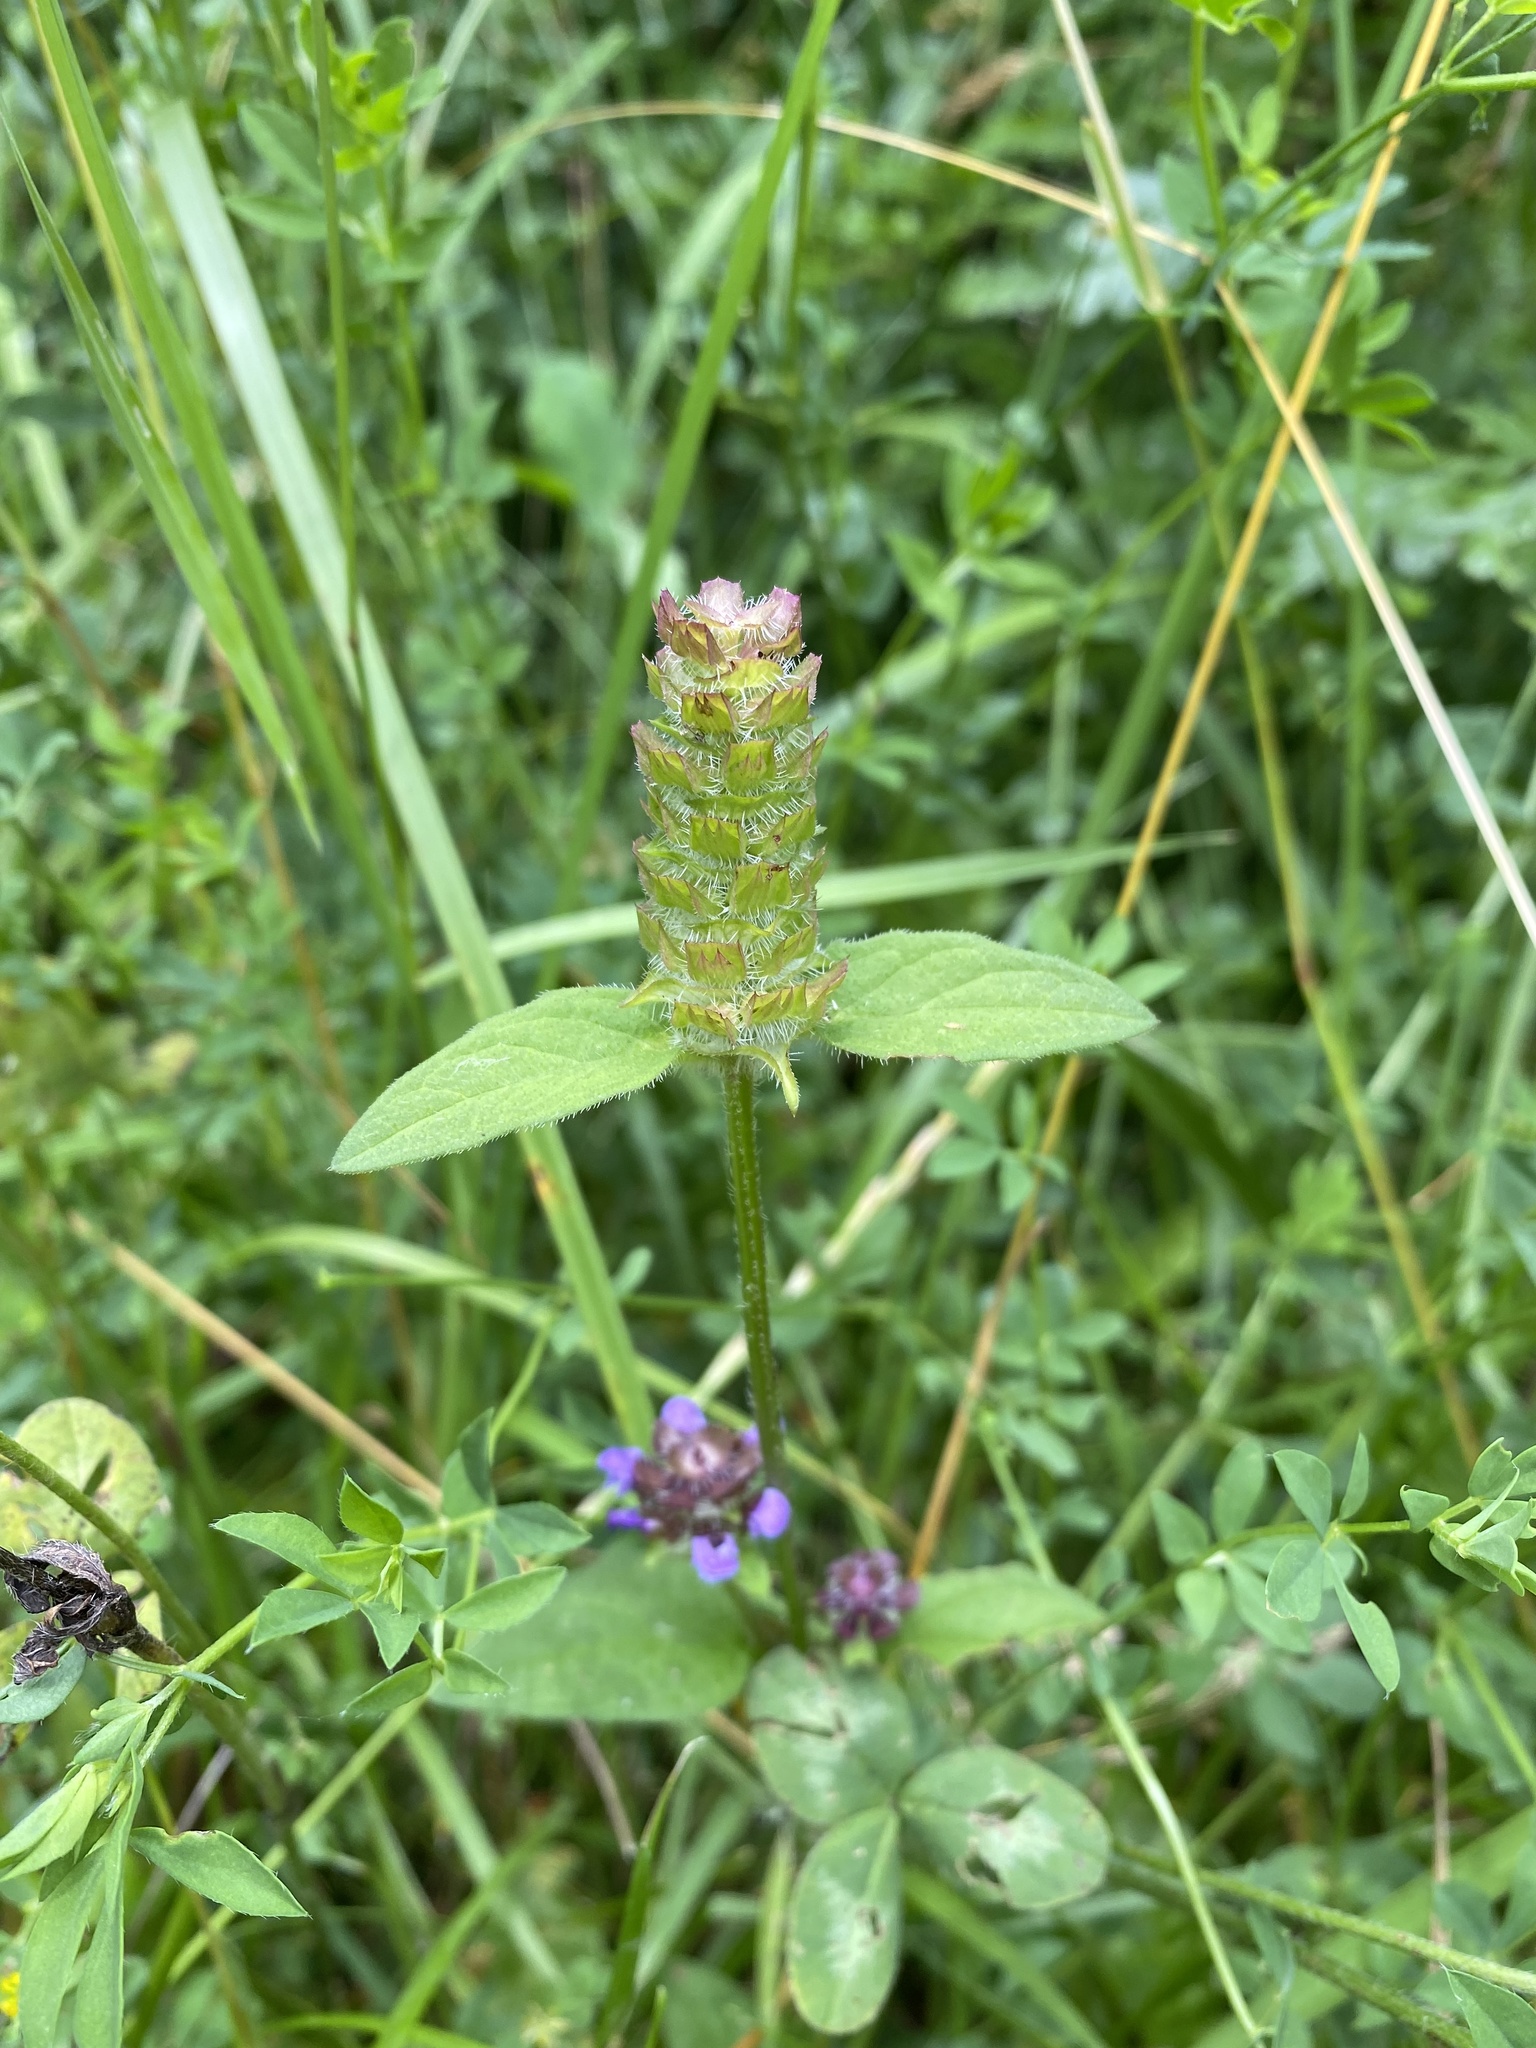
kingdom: Plantae
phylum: Tracheophyta
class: Magnoliopsida
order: Lamiales
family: Lamiaceae
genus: Prunella
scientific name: Prunella vulgaris
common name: Heal-all
